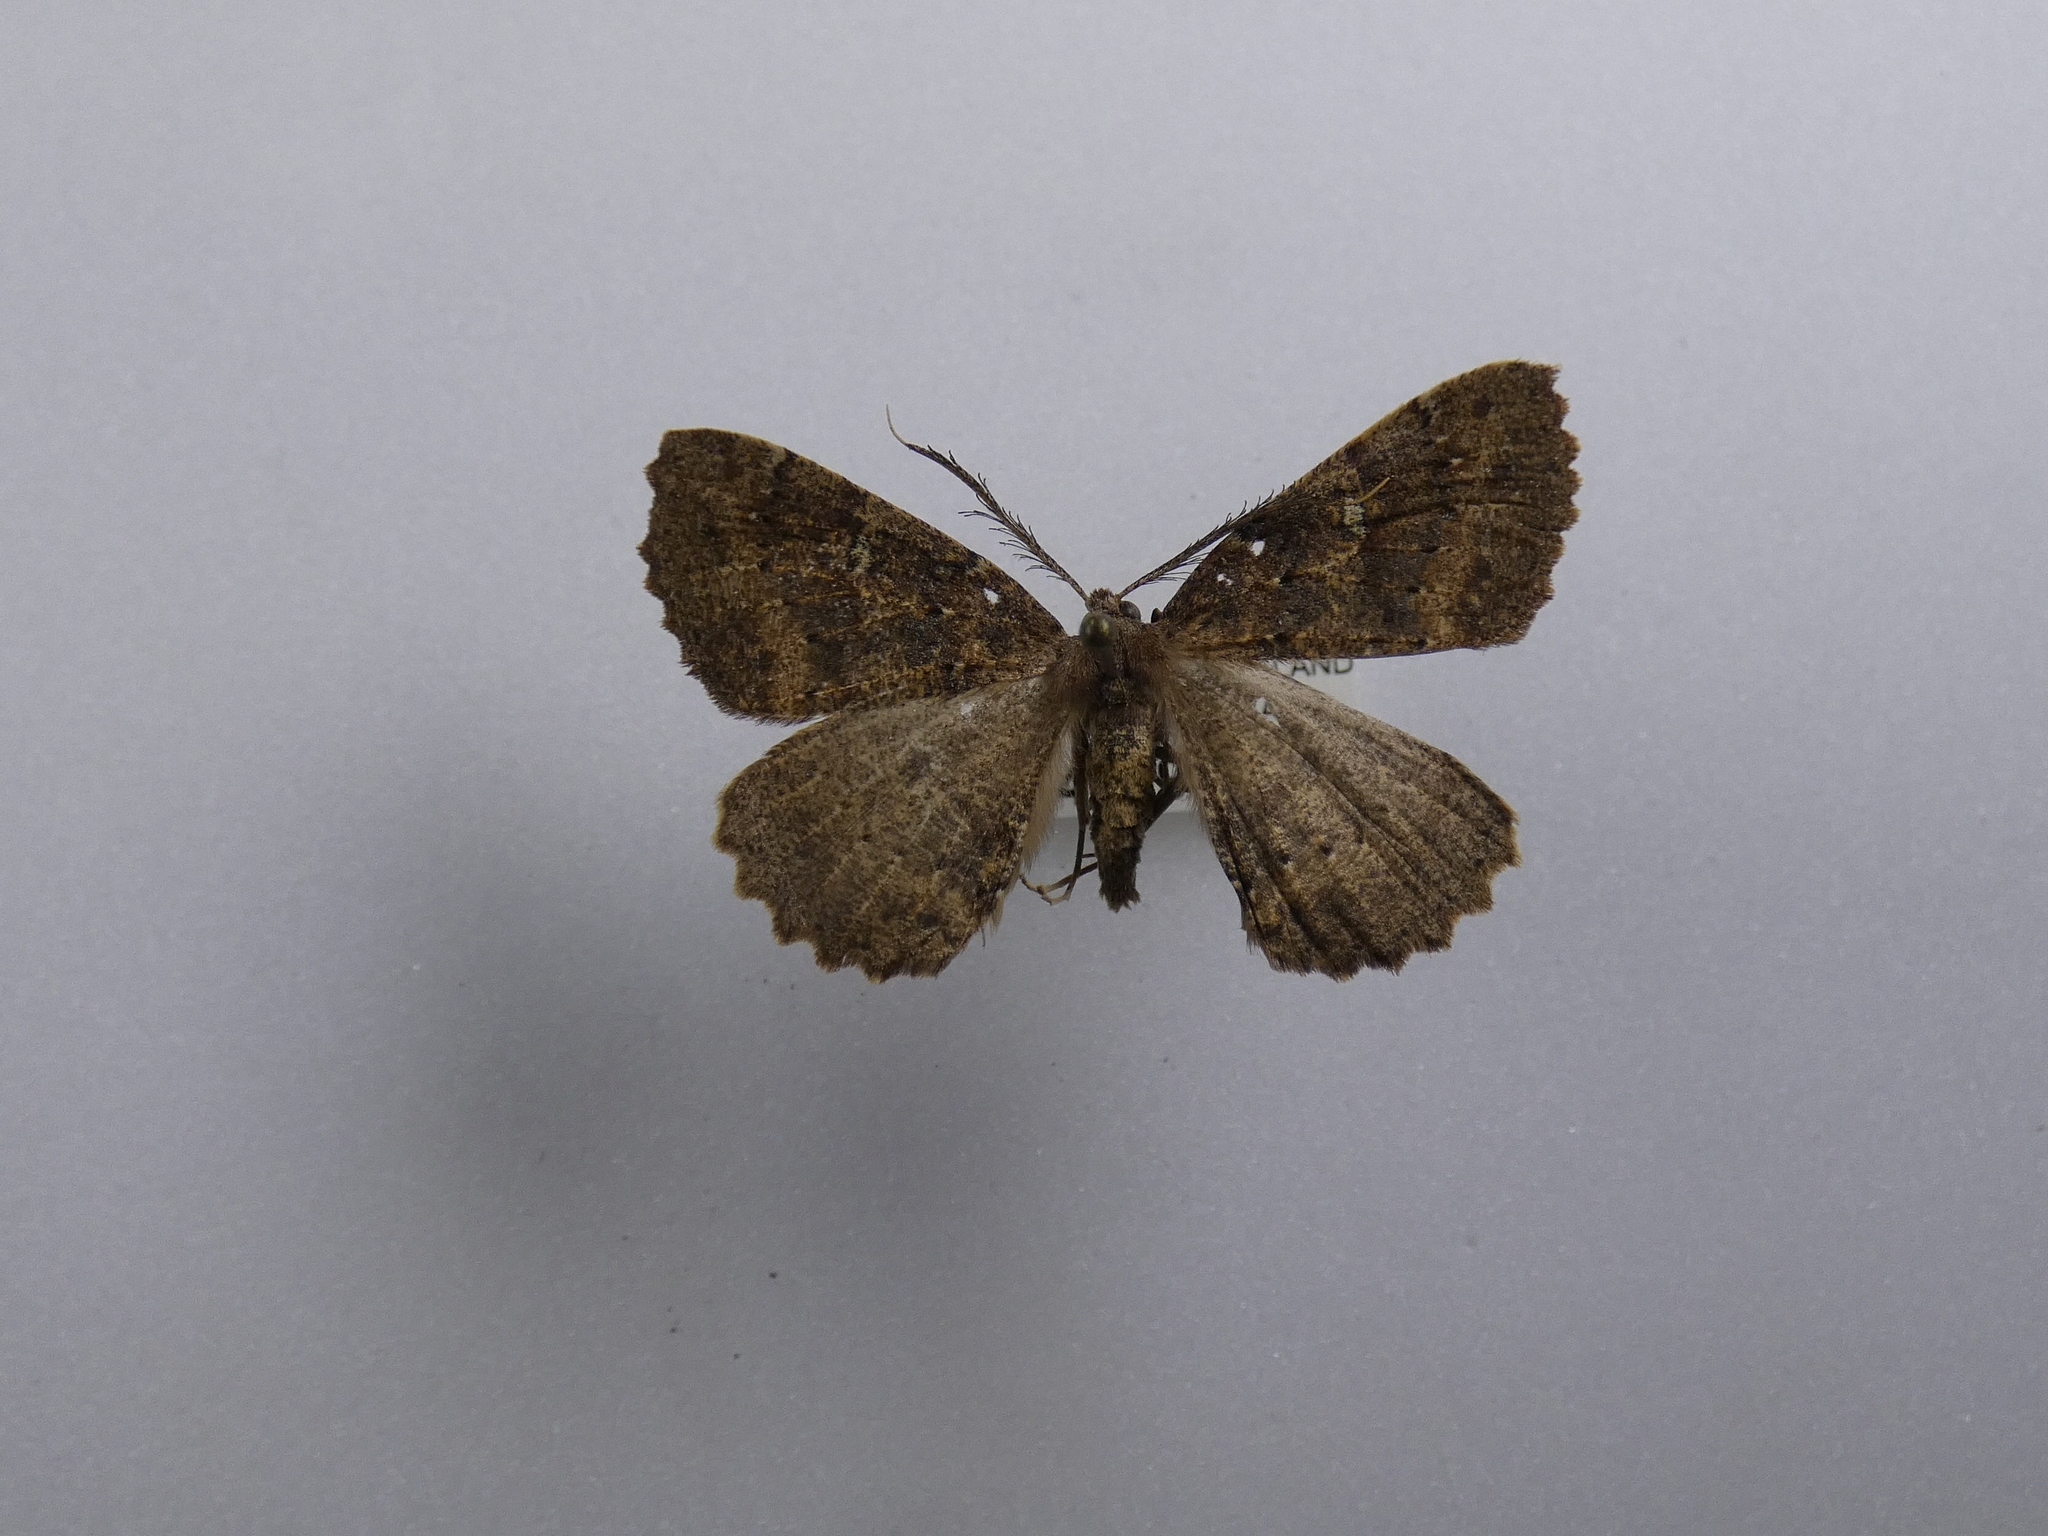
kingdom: Animalia
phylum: Arthropoda
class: Insecta
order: Lepidoptera
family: Geometridae
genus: Cleora
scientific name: Cleora scriptaria
